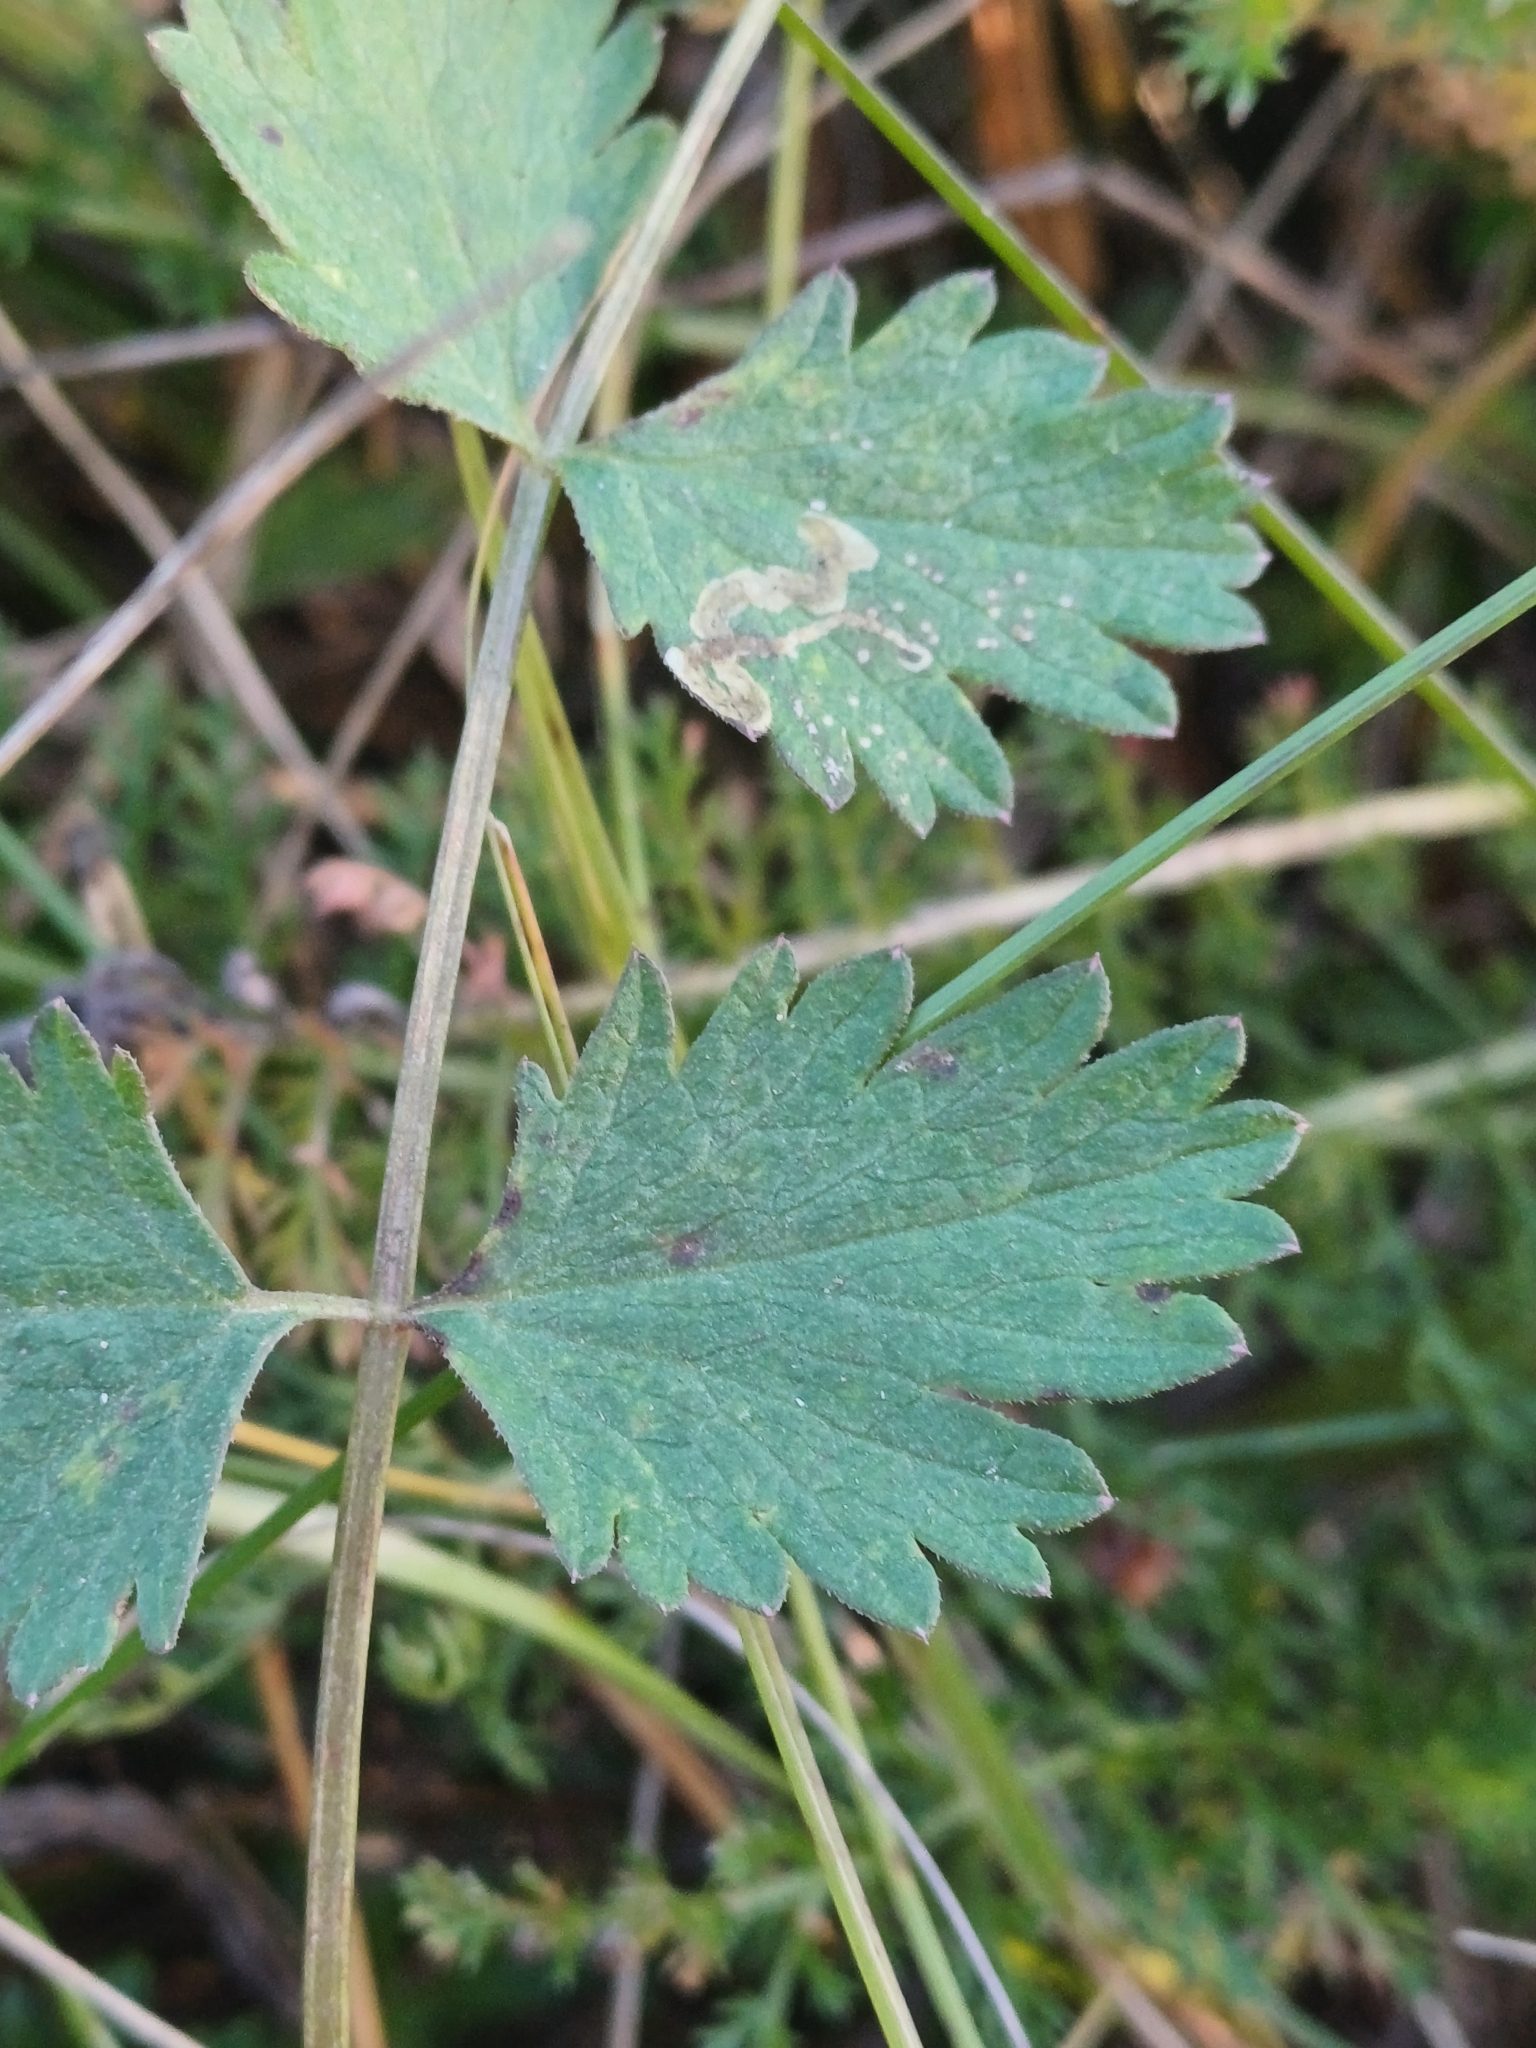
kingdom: Plantae
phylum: Tracheophyta
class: Magnoliopsida
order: Apiales
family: Apiaceae
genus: Pimpinella
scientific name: Pimpinella saxifraga
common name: Burnet-saxifrage
